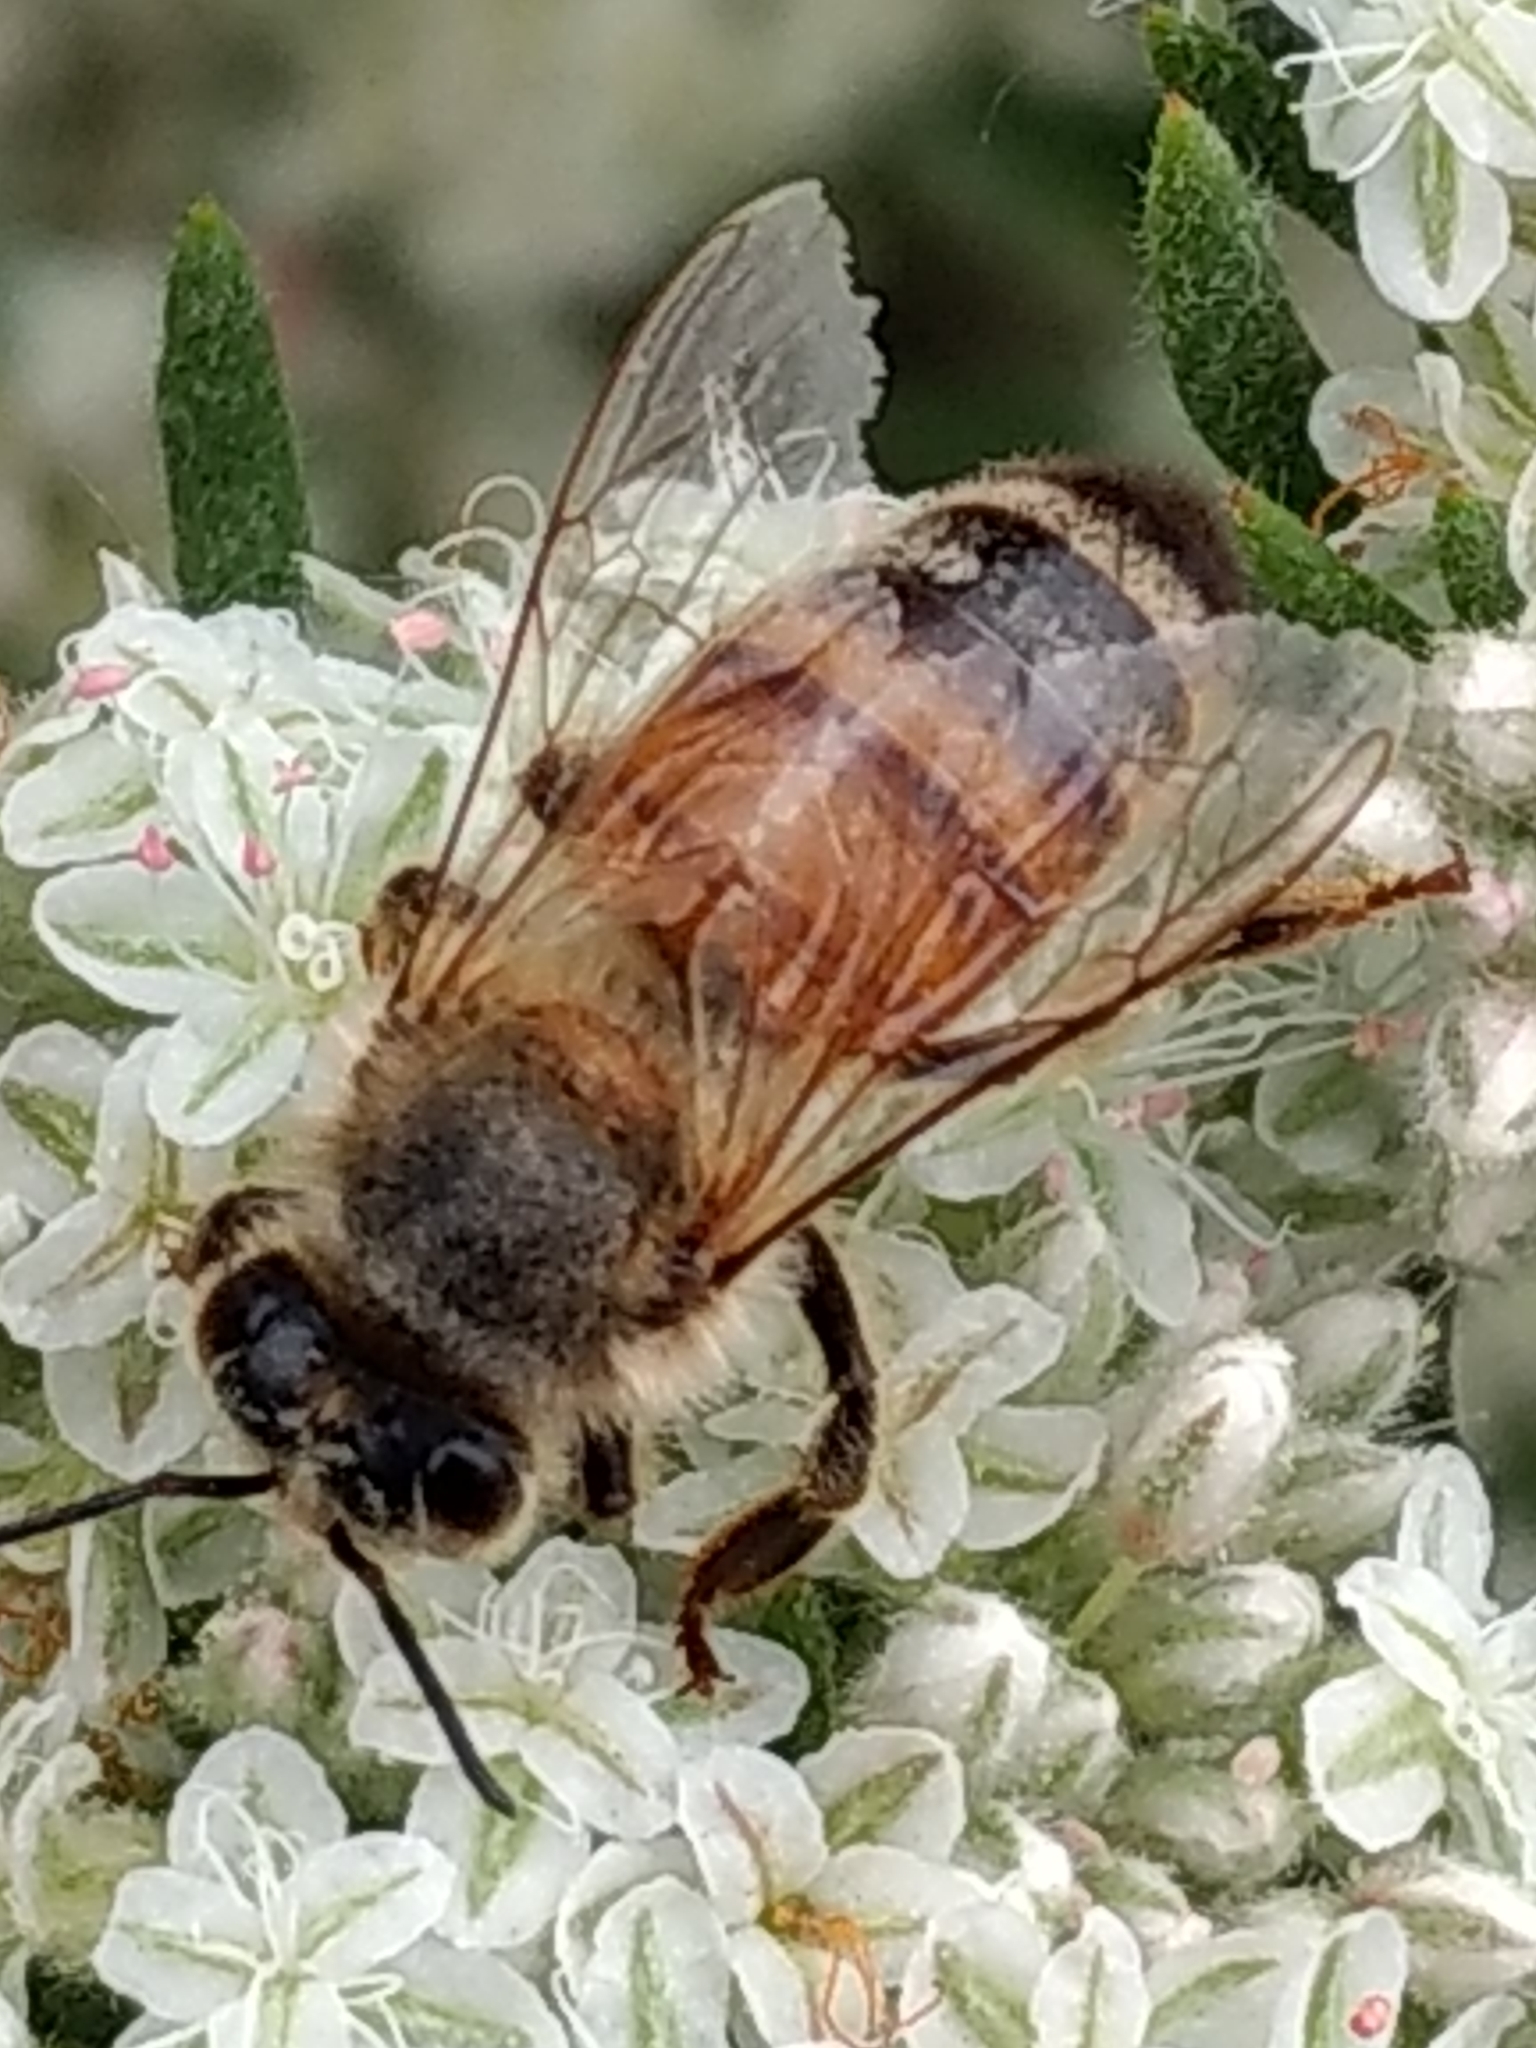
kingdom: Animalia
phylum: Arthropoda
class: Insecta
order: Hymenoptera
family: Apidae
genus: Apis
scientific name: Apis mellifera
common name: Honey bee
